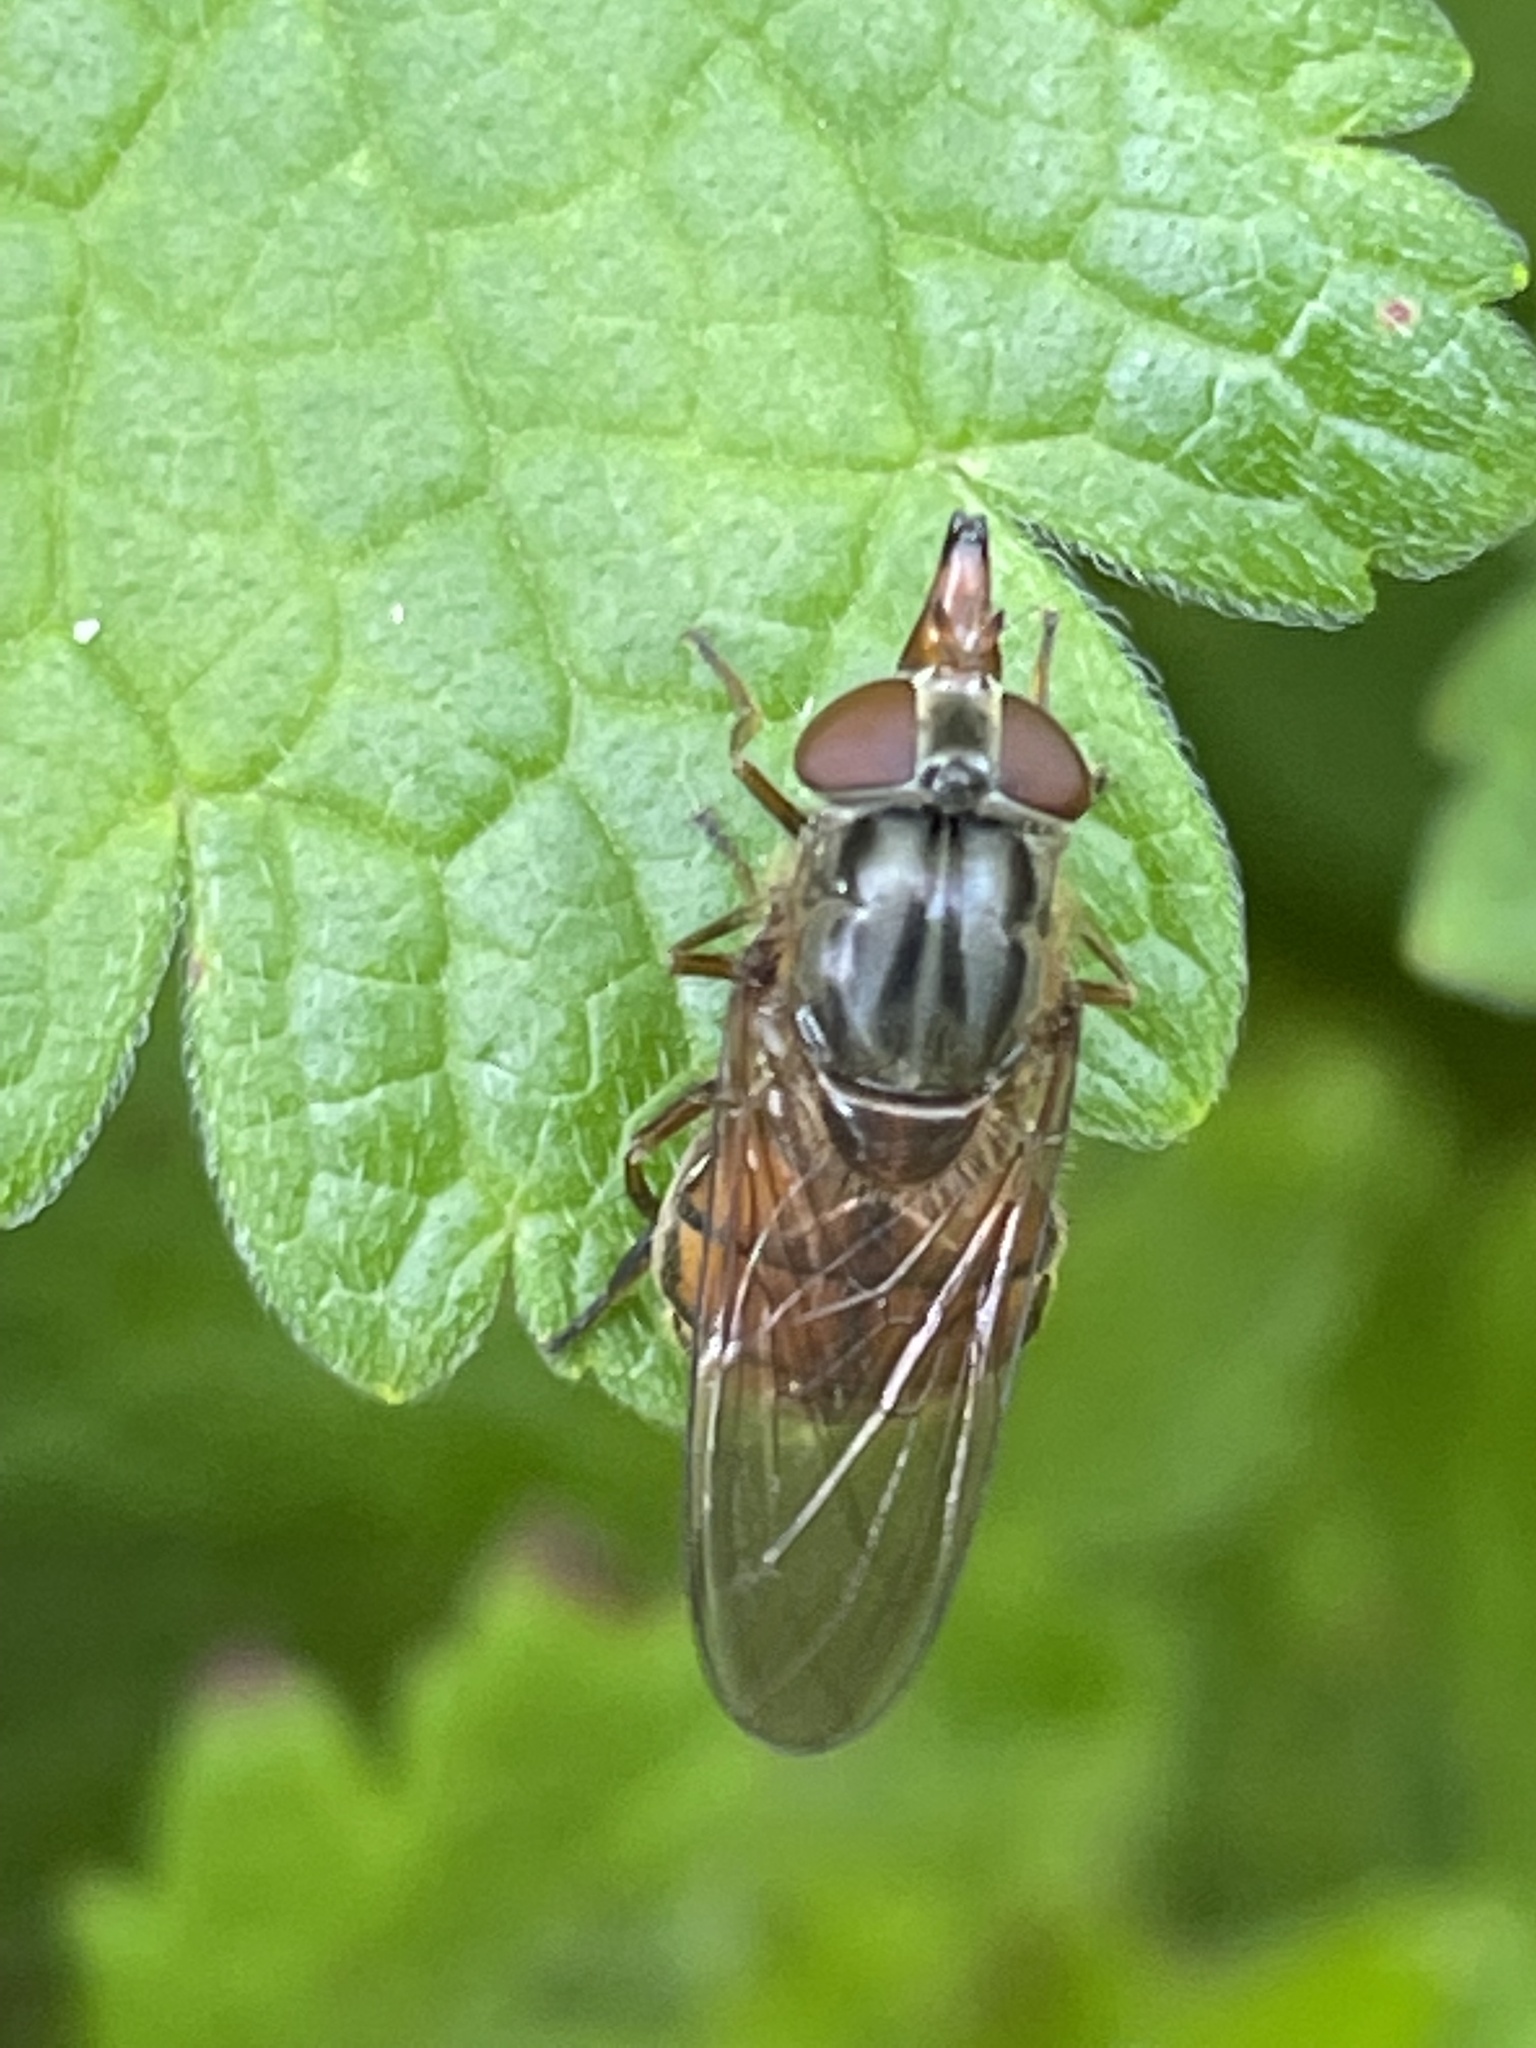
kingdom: Animalia
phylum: Arthropoda
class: Insecta
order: Diptera
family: Syrphidae
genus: Rhingia
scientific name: Rhingia campestris
